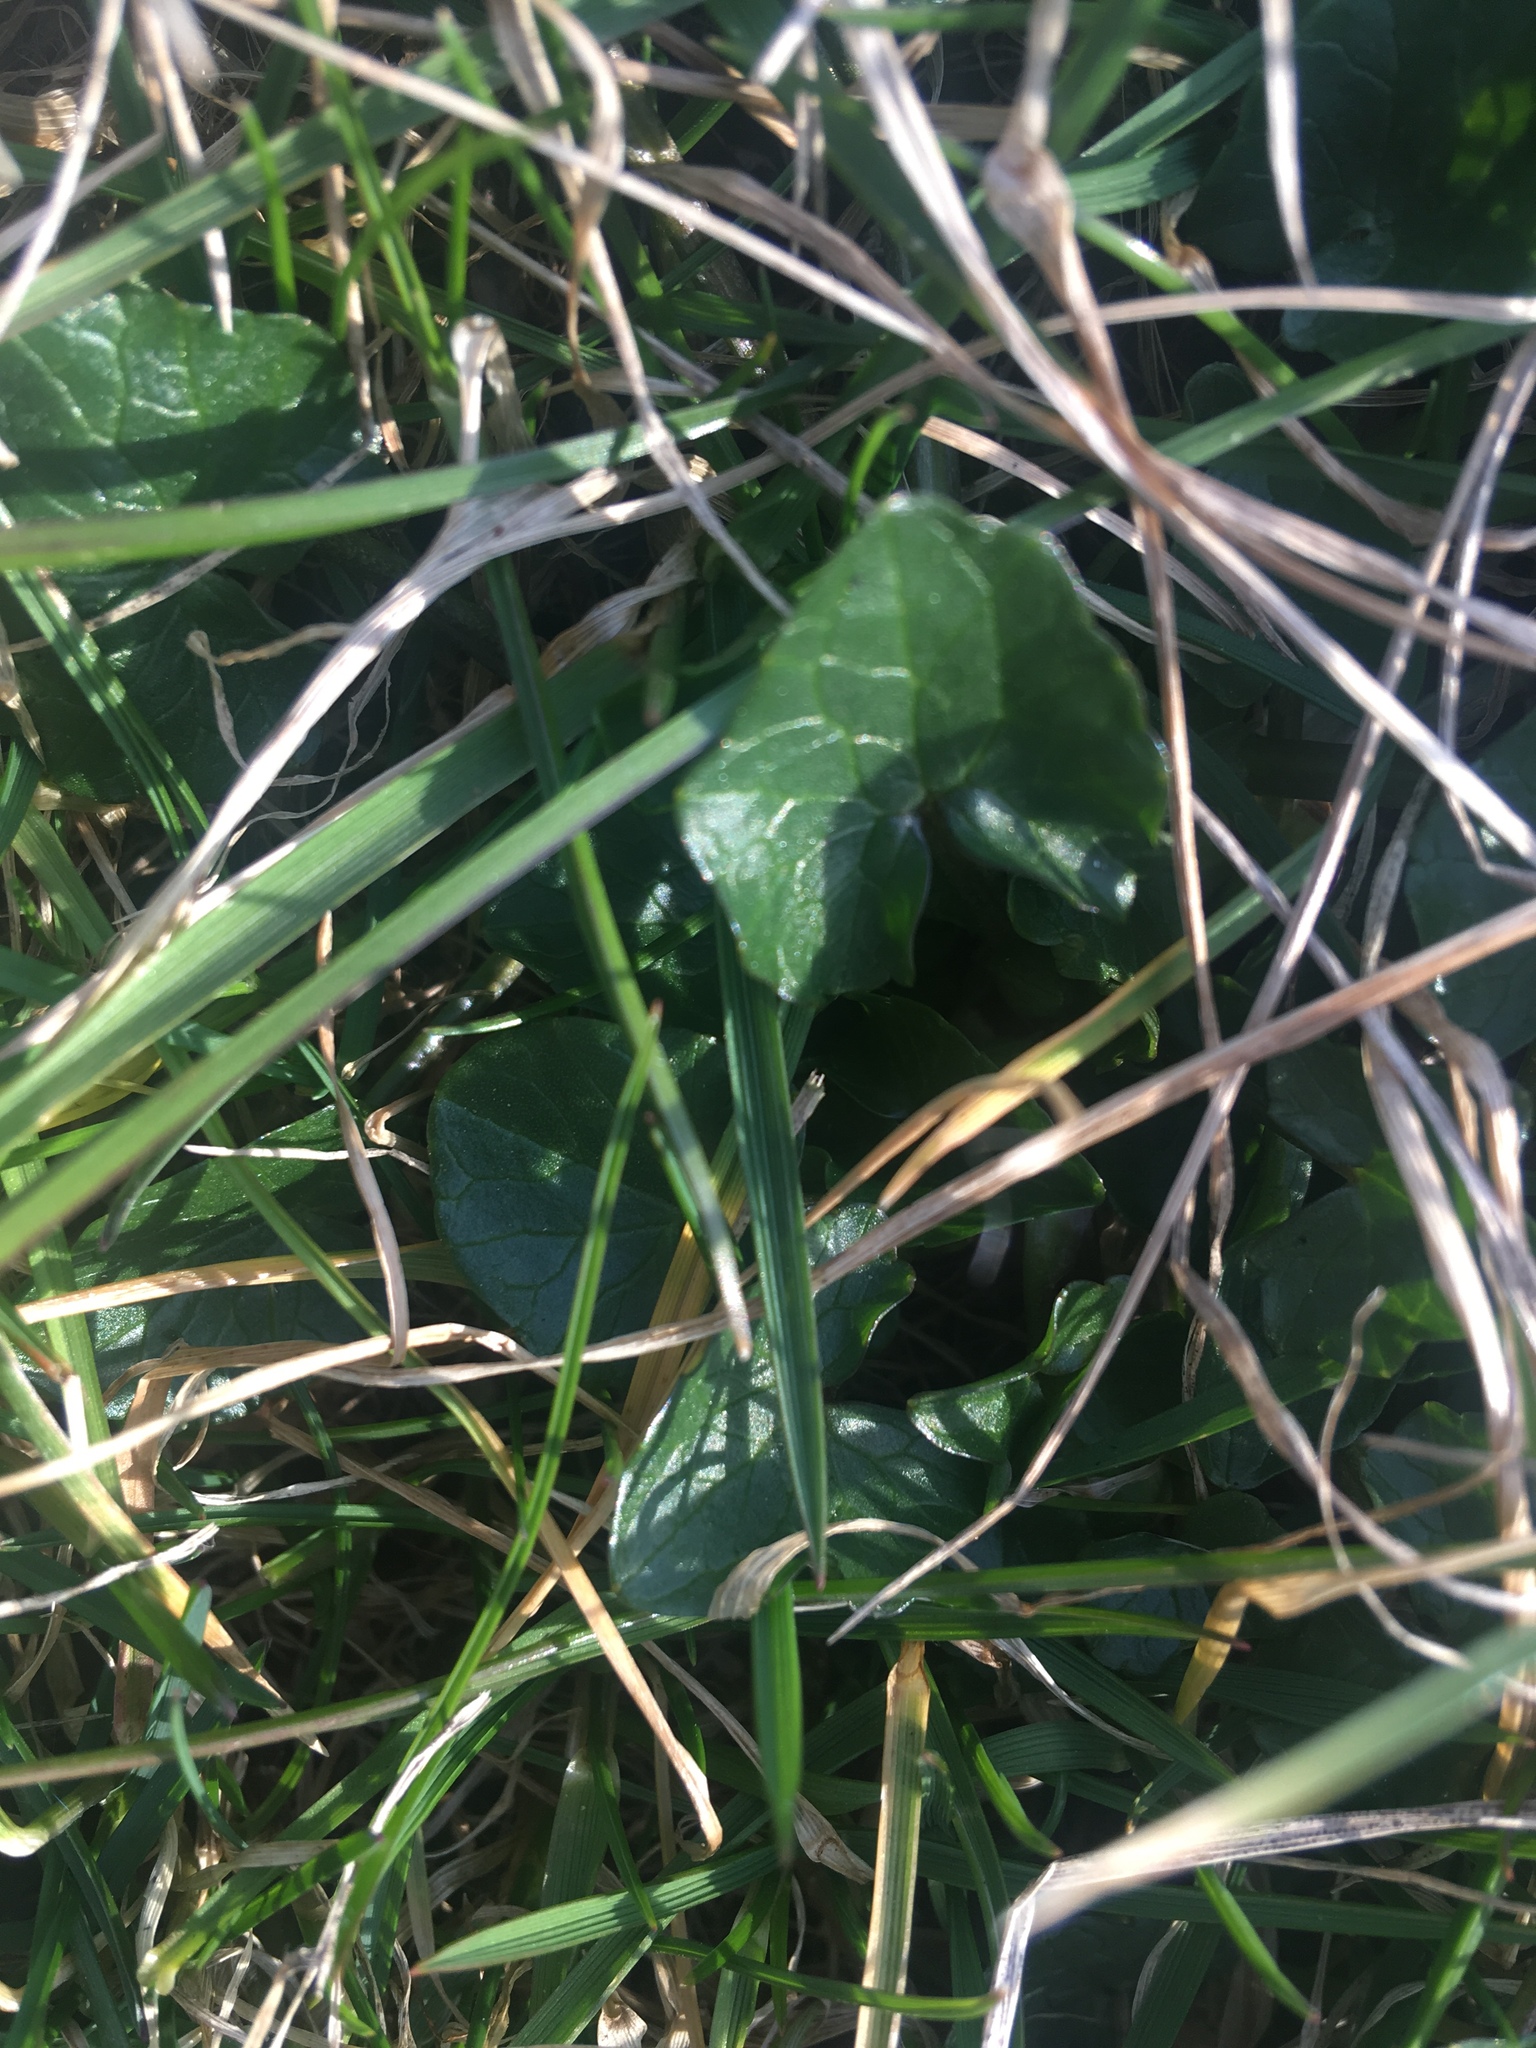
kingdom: Plantae
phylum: Tracheophyta
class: Magnoliopsida
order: Ranunculales
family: Ranunculaceae
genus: Ficaria
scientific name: Ficaria verna
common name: Lesser celandine
